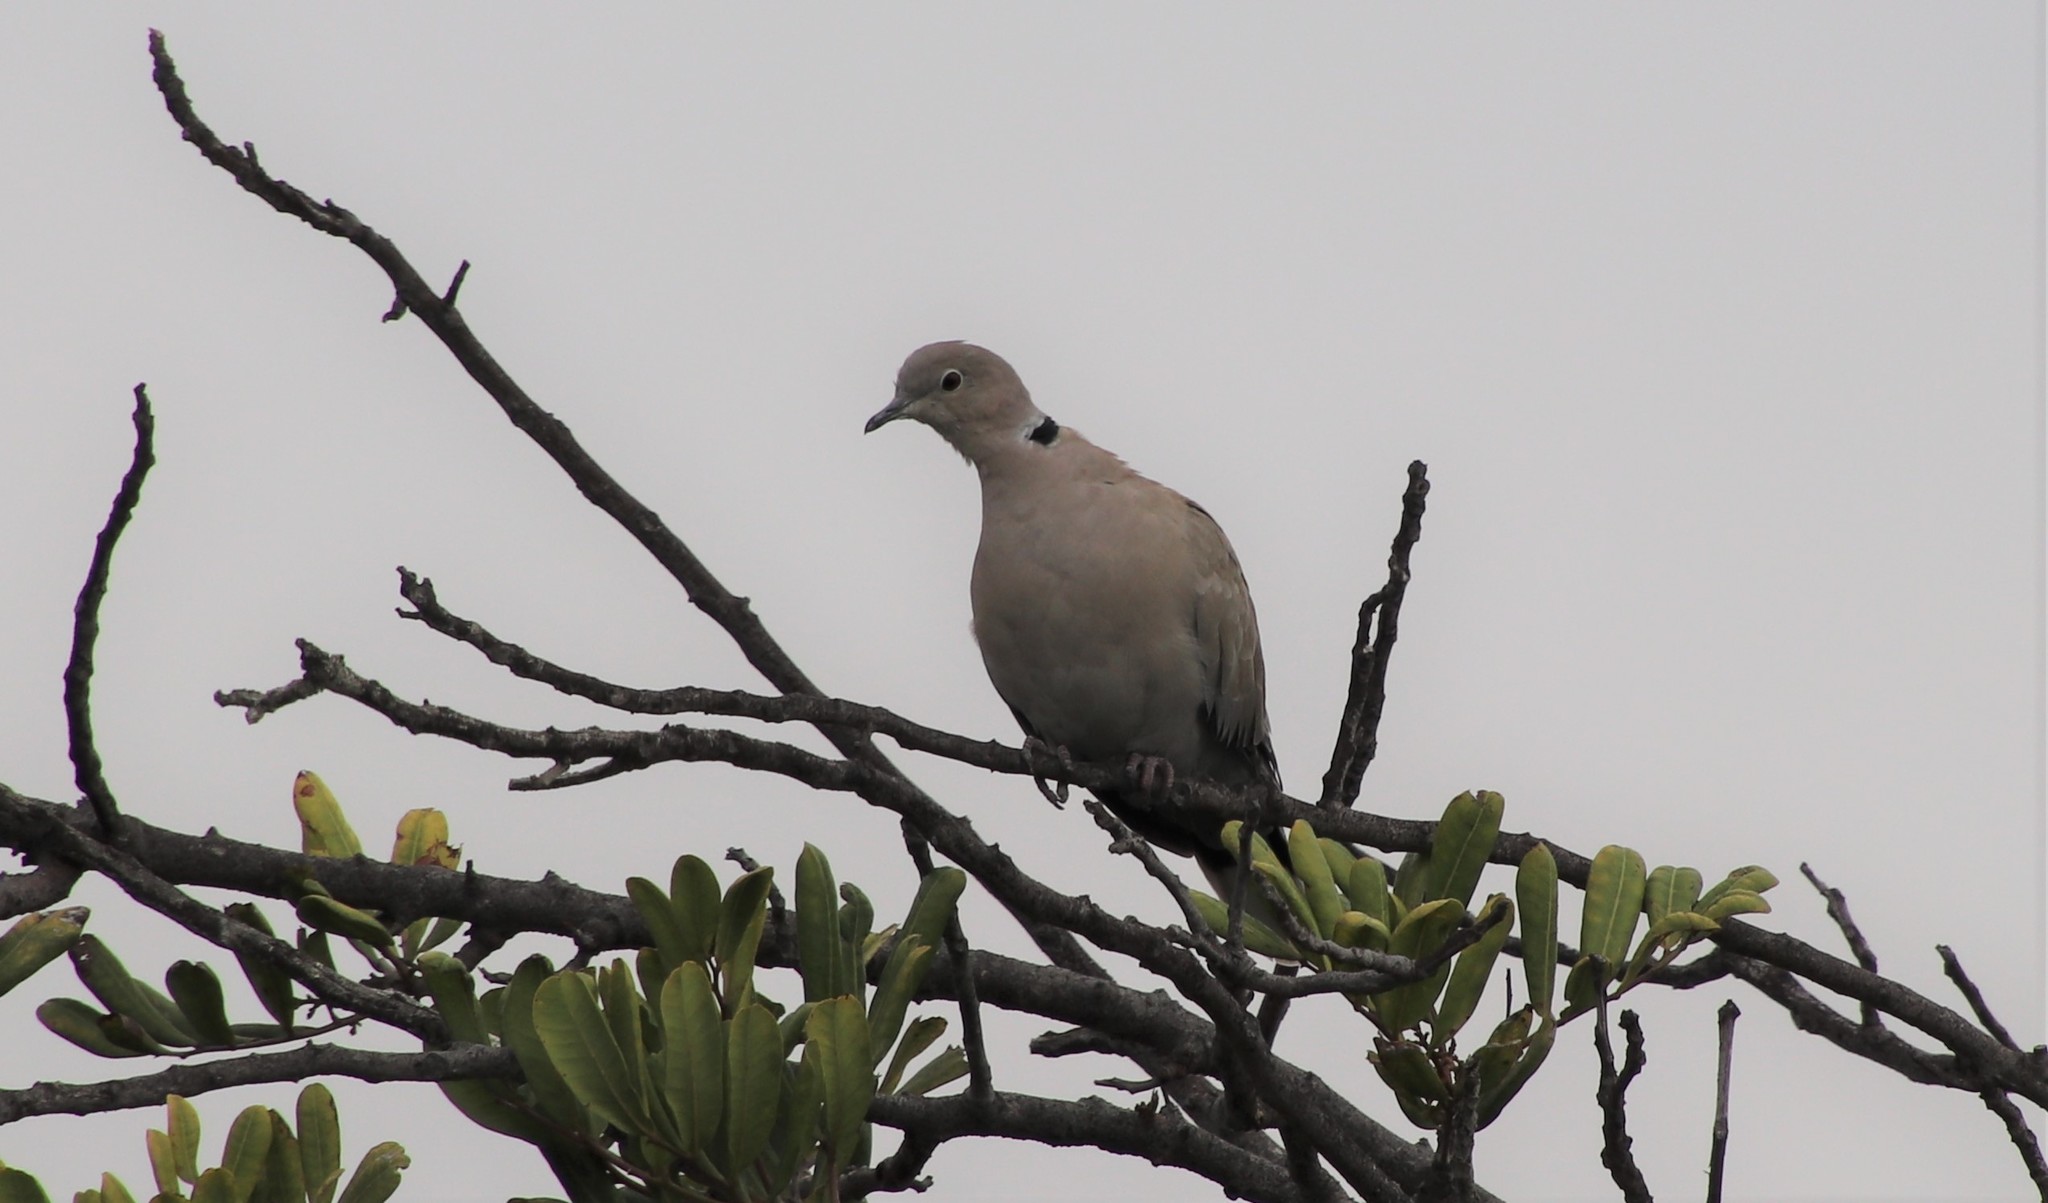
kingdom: Animalia
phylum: Chordata
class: Aves
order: Columbiformes
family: Columbidae
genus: Streptopelia
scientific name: Streptopelia decaocto
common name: Eurasian collared dove
